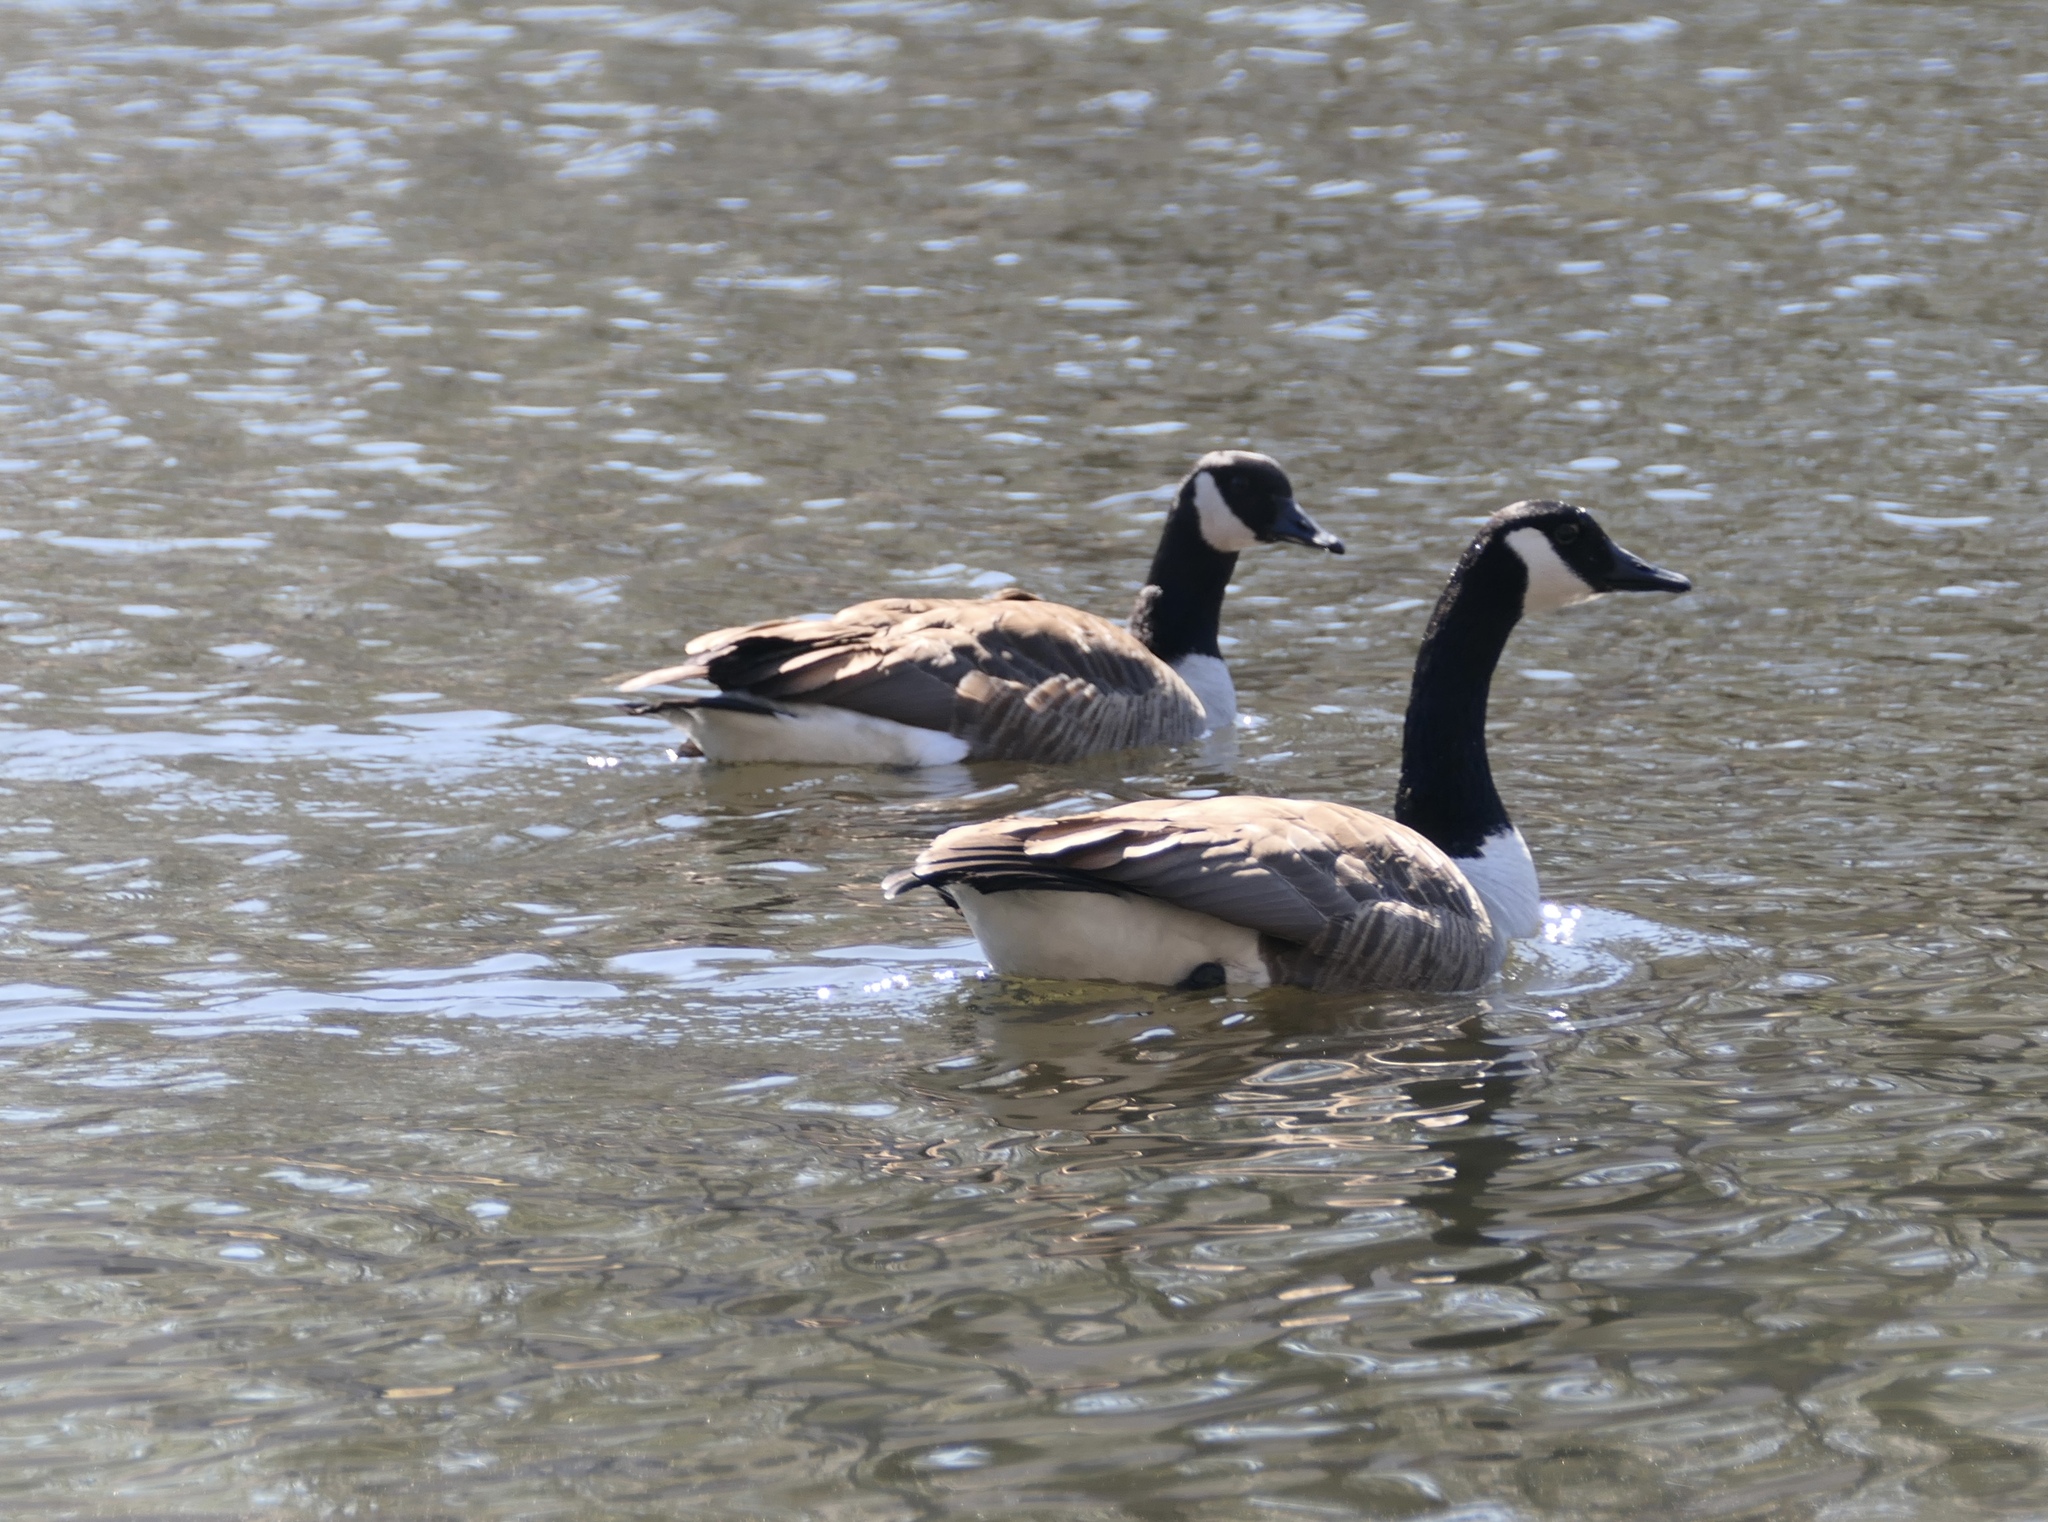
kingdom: Animalia
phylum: Chordata
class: Aves
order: Anseriformes
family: Anatidae
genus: Branta
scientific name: Branta canadensis
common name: Canada goose
